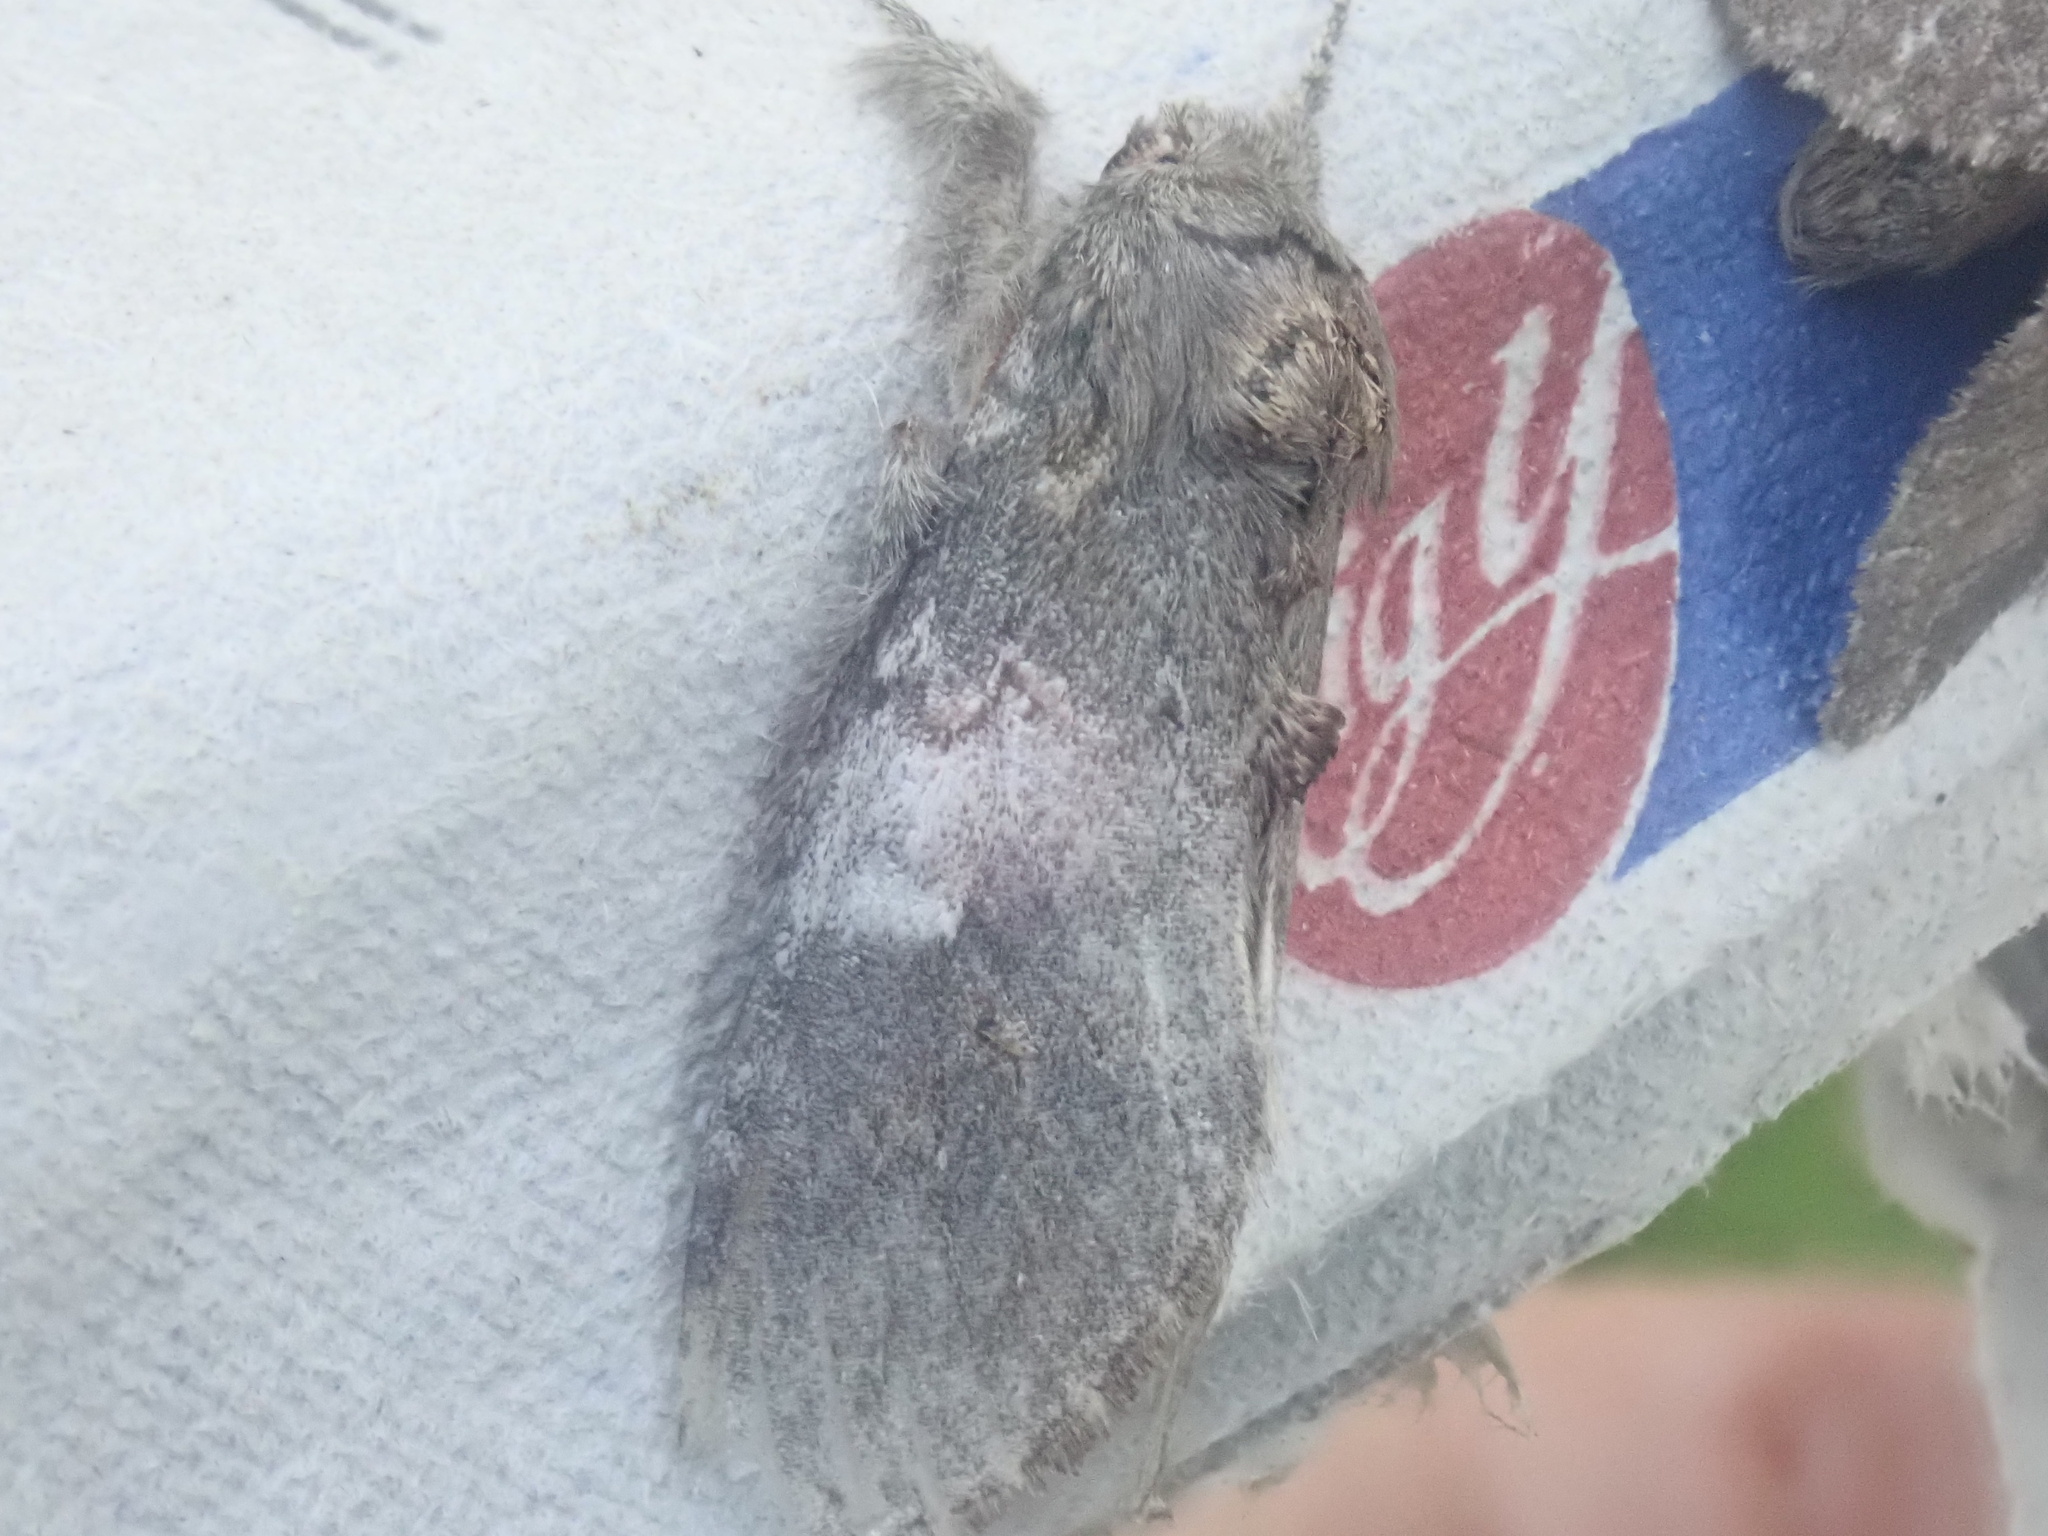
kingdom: Animalia
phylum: Arthropoda
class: Insecta
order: Lepidoptera
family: Notodontidae
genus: Peridea
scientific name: Peridea angulosa
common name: Angulose prominent
